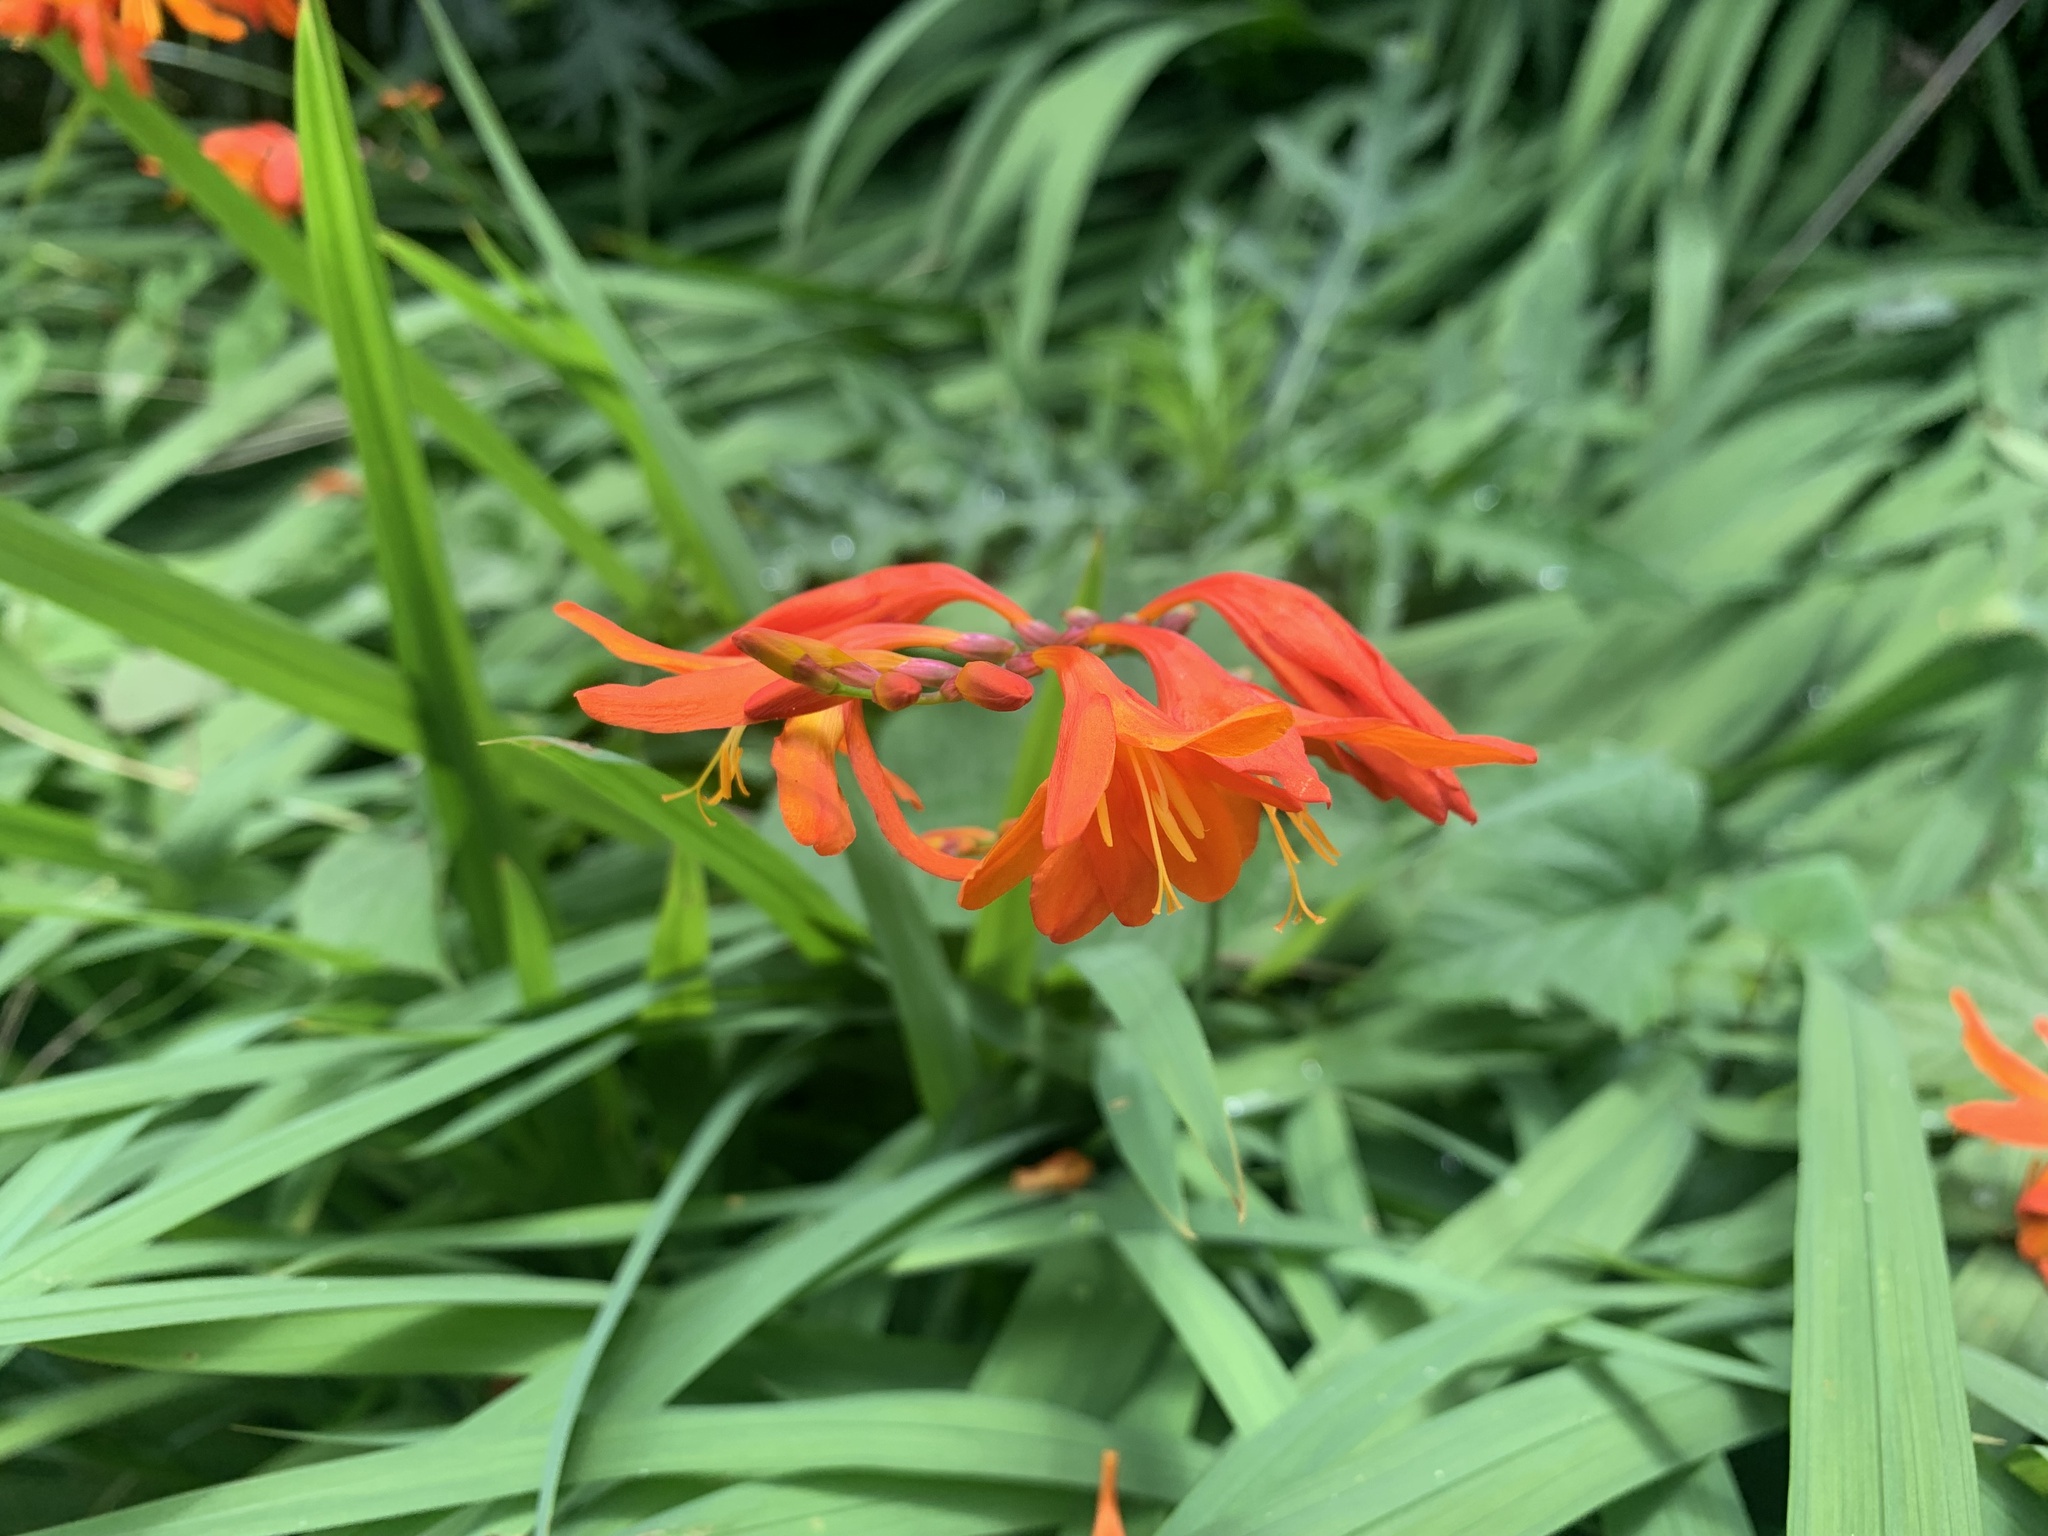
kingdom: Plantae
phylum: Tracheophyta
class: Liliopsida
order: Asparagales
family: Iridaceae
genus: Crocosmia
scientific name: Crocosmia crocosmiiflora
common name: Montbretia
